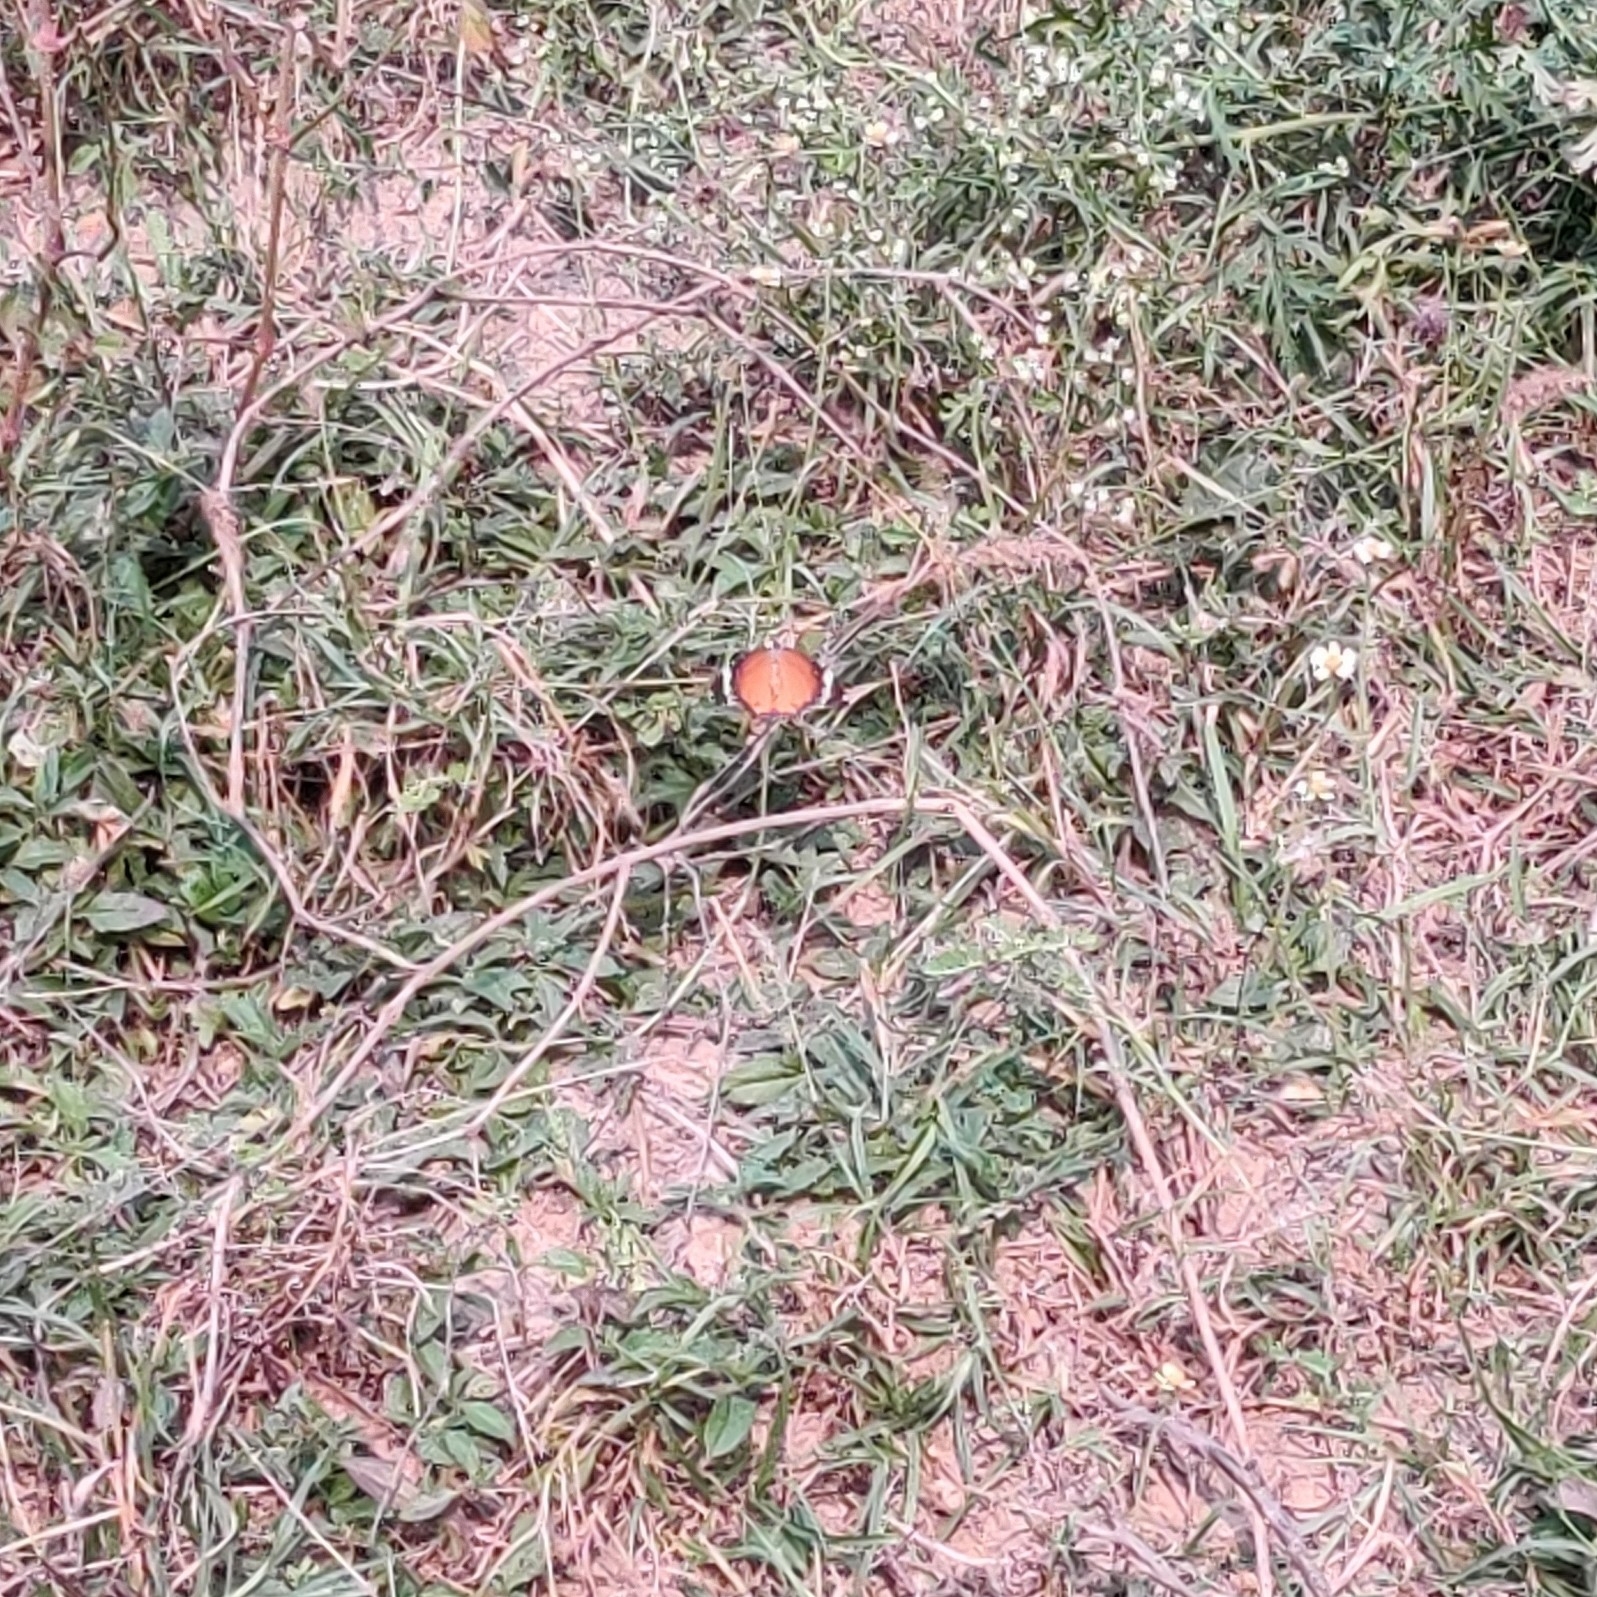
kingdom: Animalia
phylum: Arthropoda
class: Insecta
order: Lepidoptera
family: Nymphalidae
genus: Danaus
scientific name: Danaus chrysippus
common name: Plain tiger
